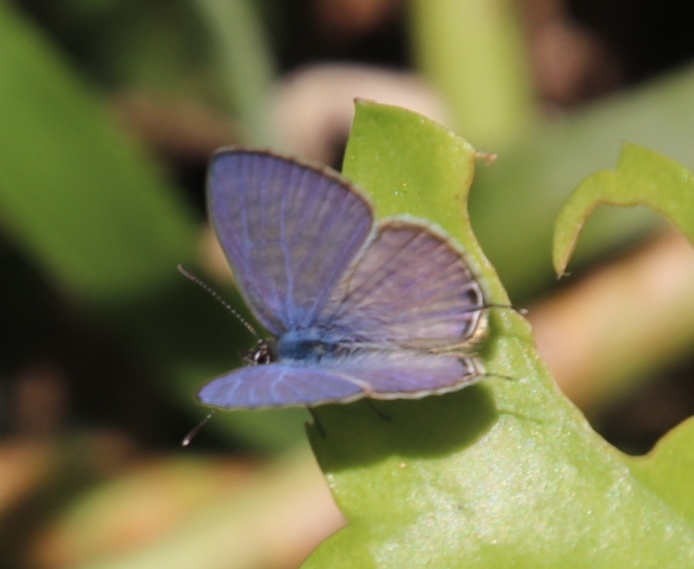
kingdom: Animalia
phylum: Arthropoda
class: Insecta
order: Lepidoptera
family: Lycaenidae
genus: Leptotes
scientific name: Leptotes
